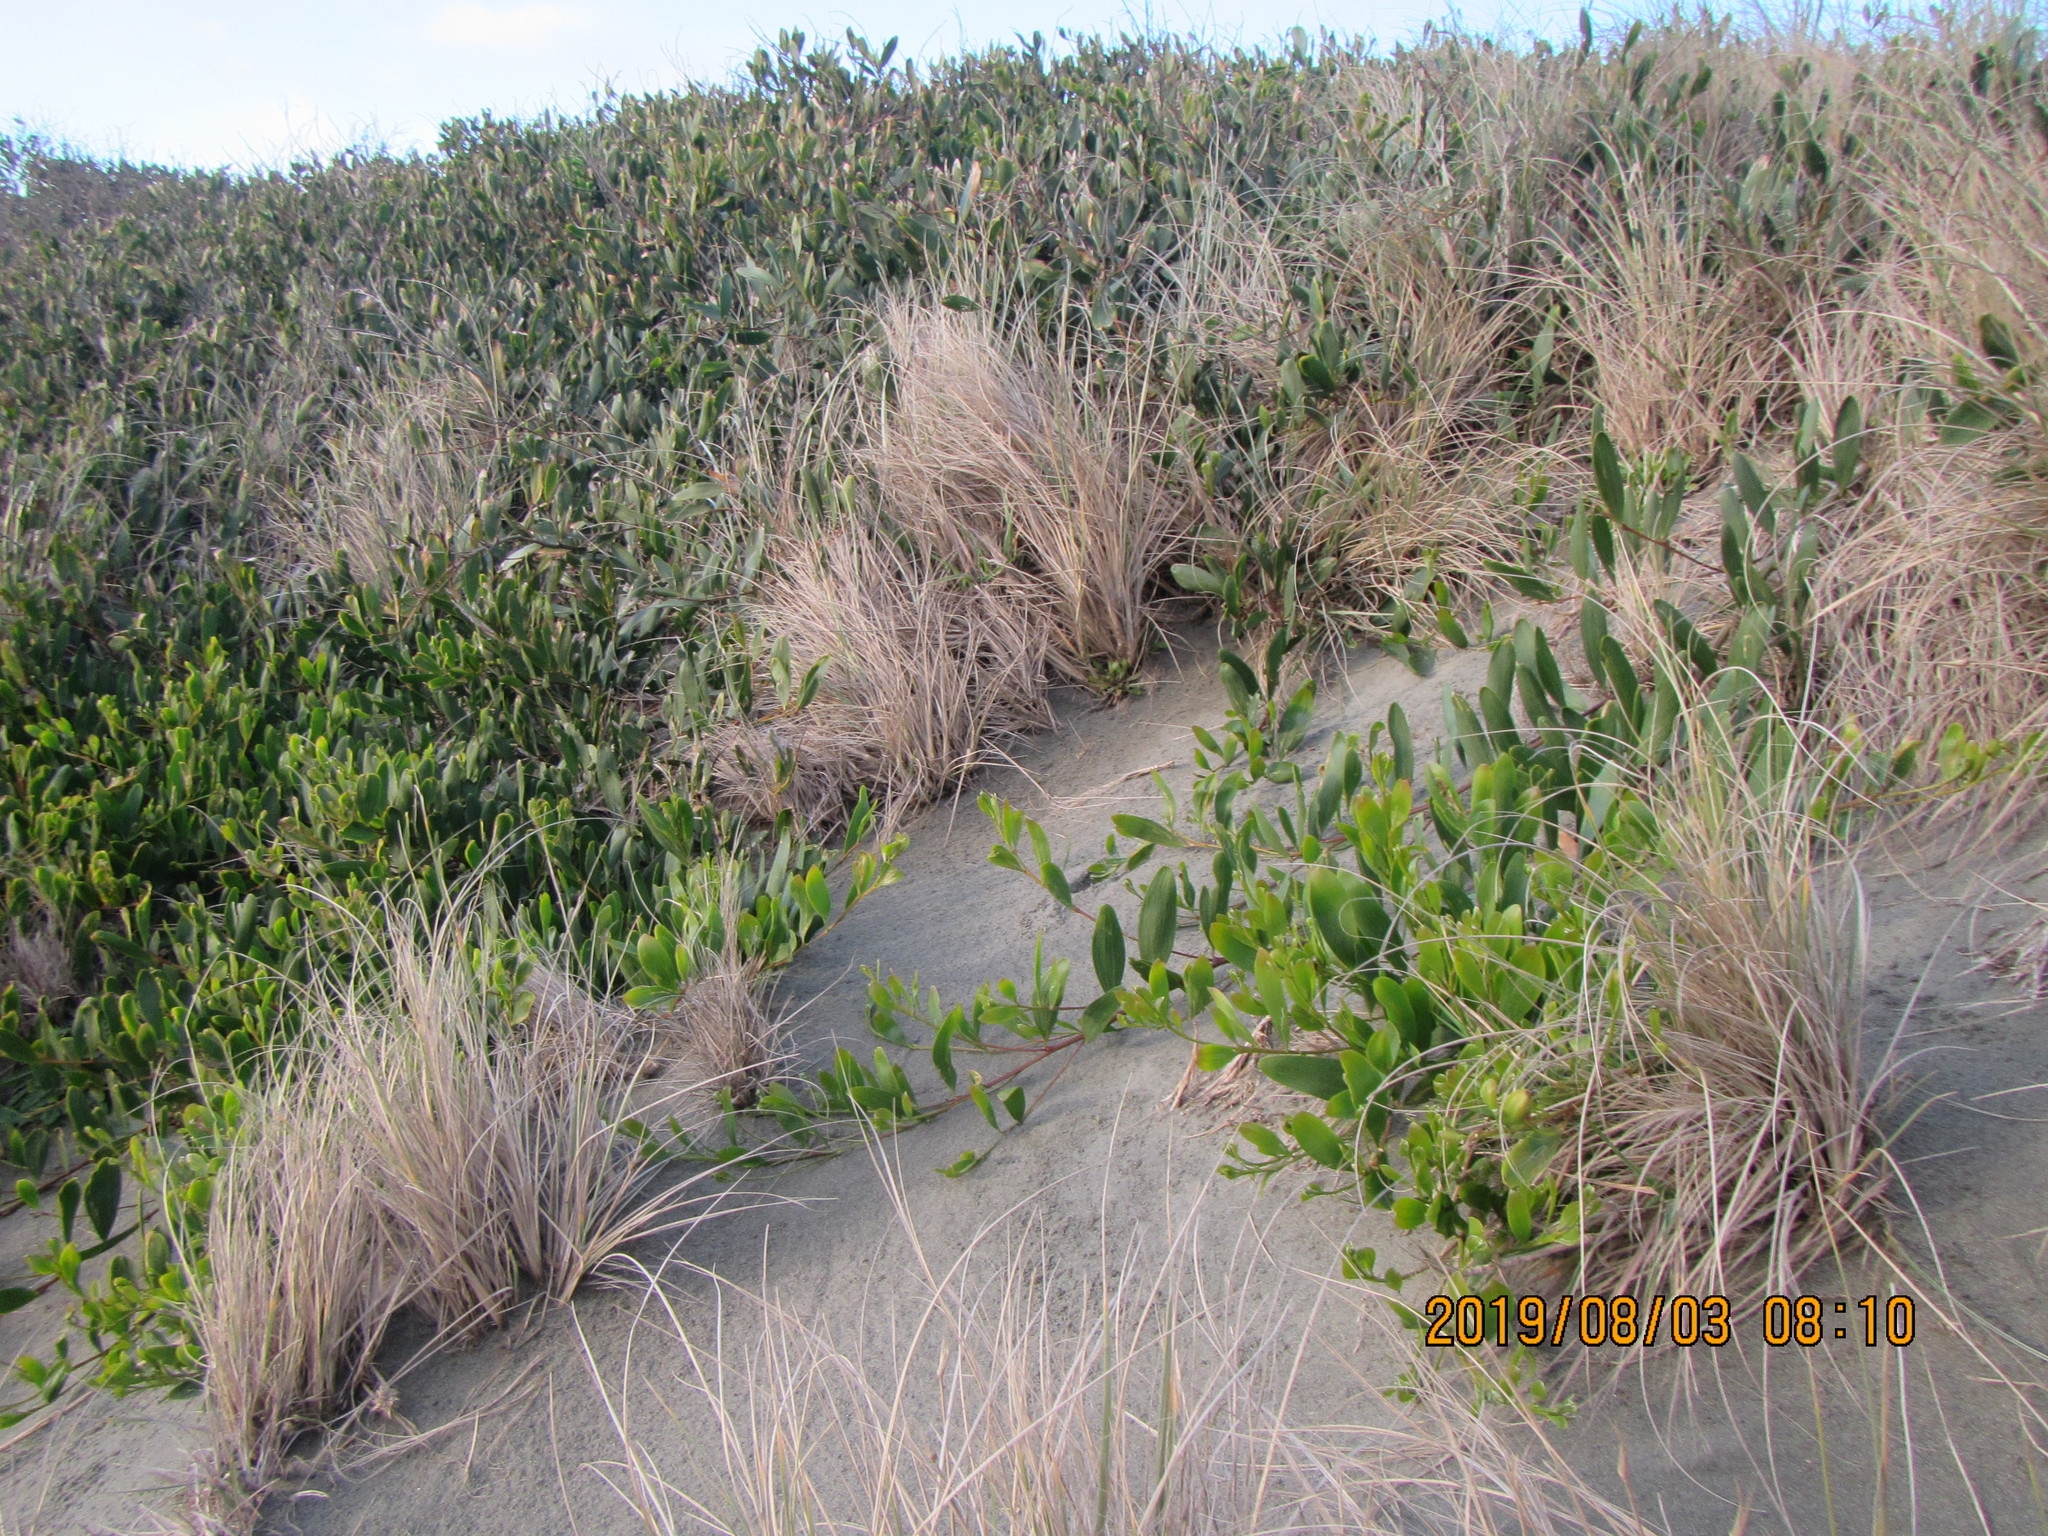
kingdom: Plantae
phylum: Tracheophyta
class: Magnoliopsida
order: Fabales
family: Fabaceae
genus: Acacia
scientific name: Acacia longifolia
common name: Sydney golden wattle
